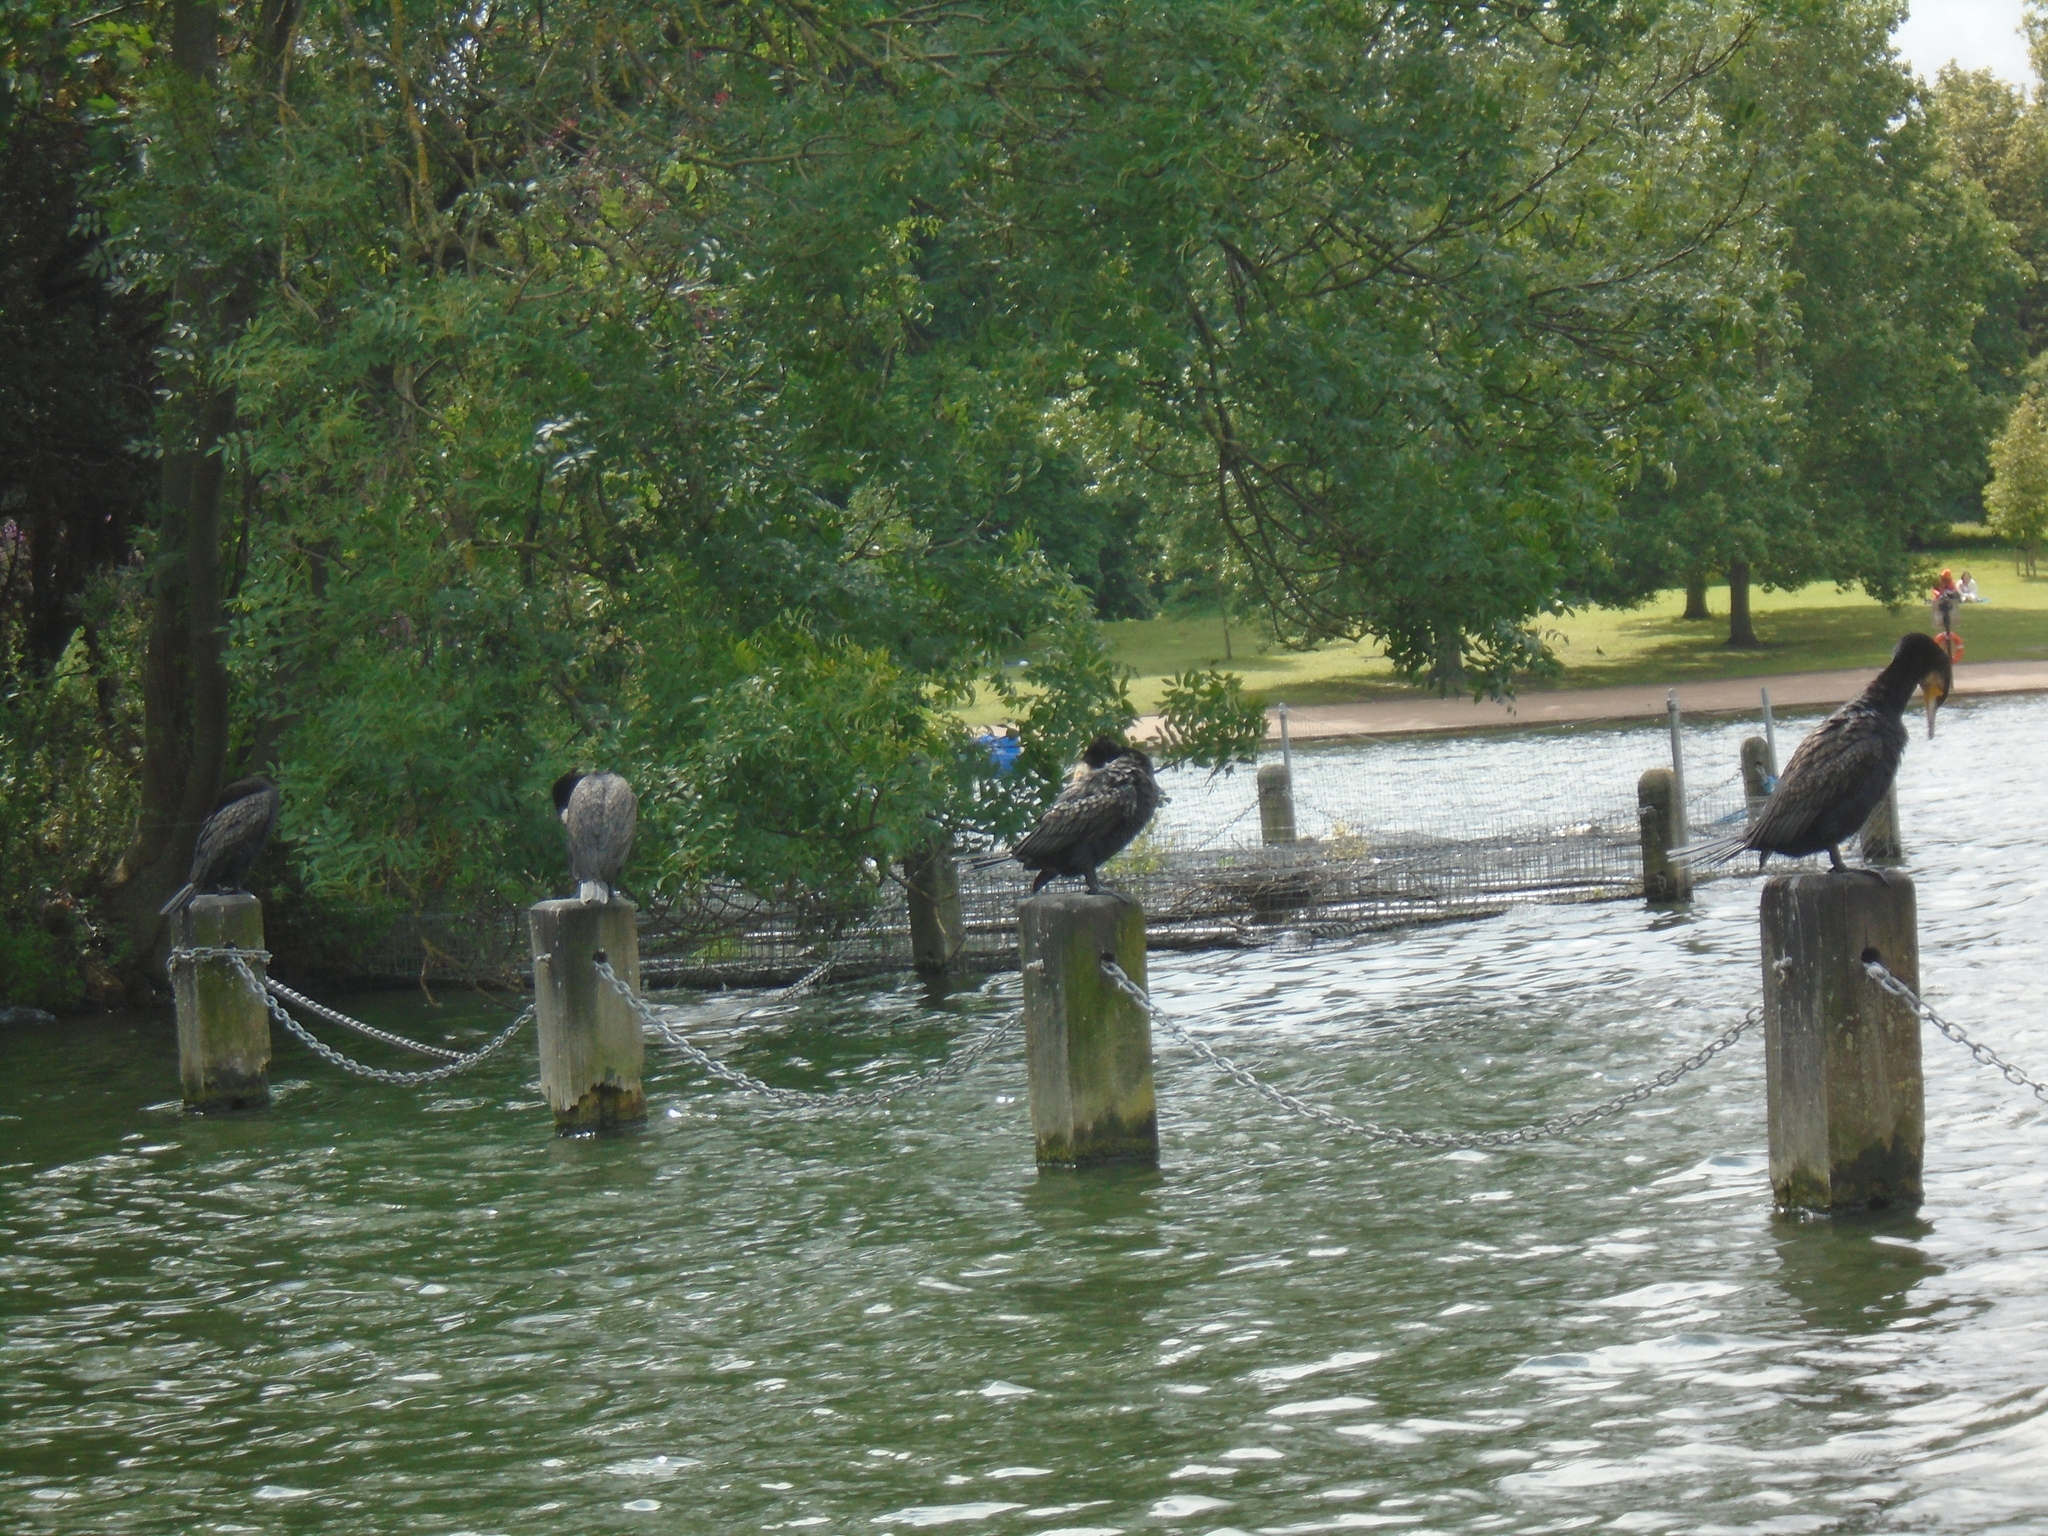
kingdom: Animalia
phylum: Chordata
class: Aves
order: Suliformes
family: Phalacrocoracidae
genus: Phalacrocorax
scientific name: Phalacrocorax carbo
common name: Great cormorant
